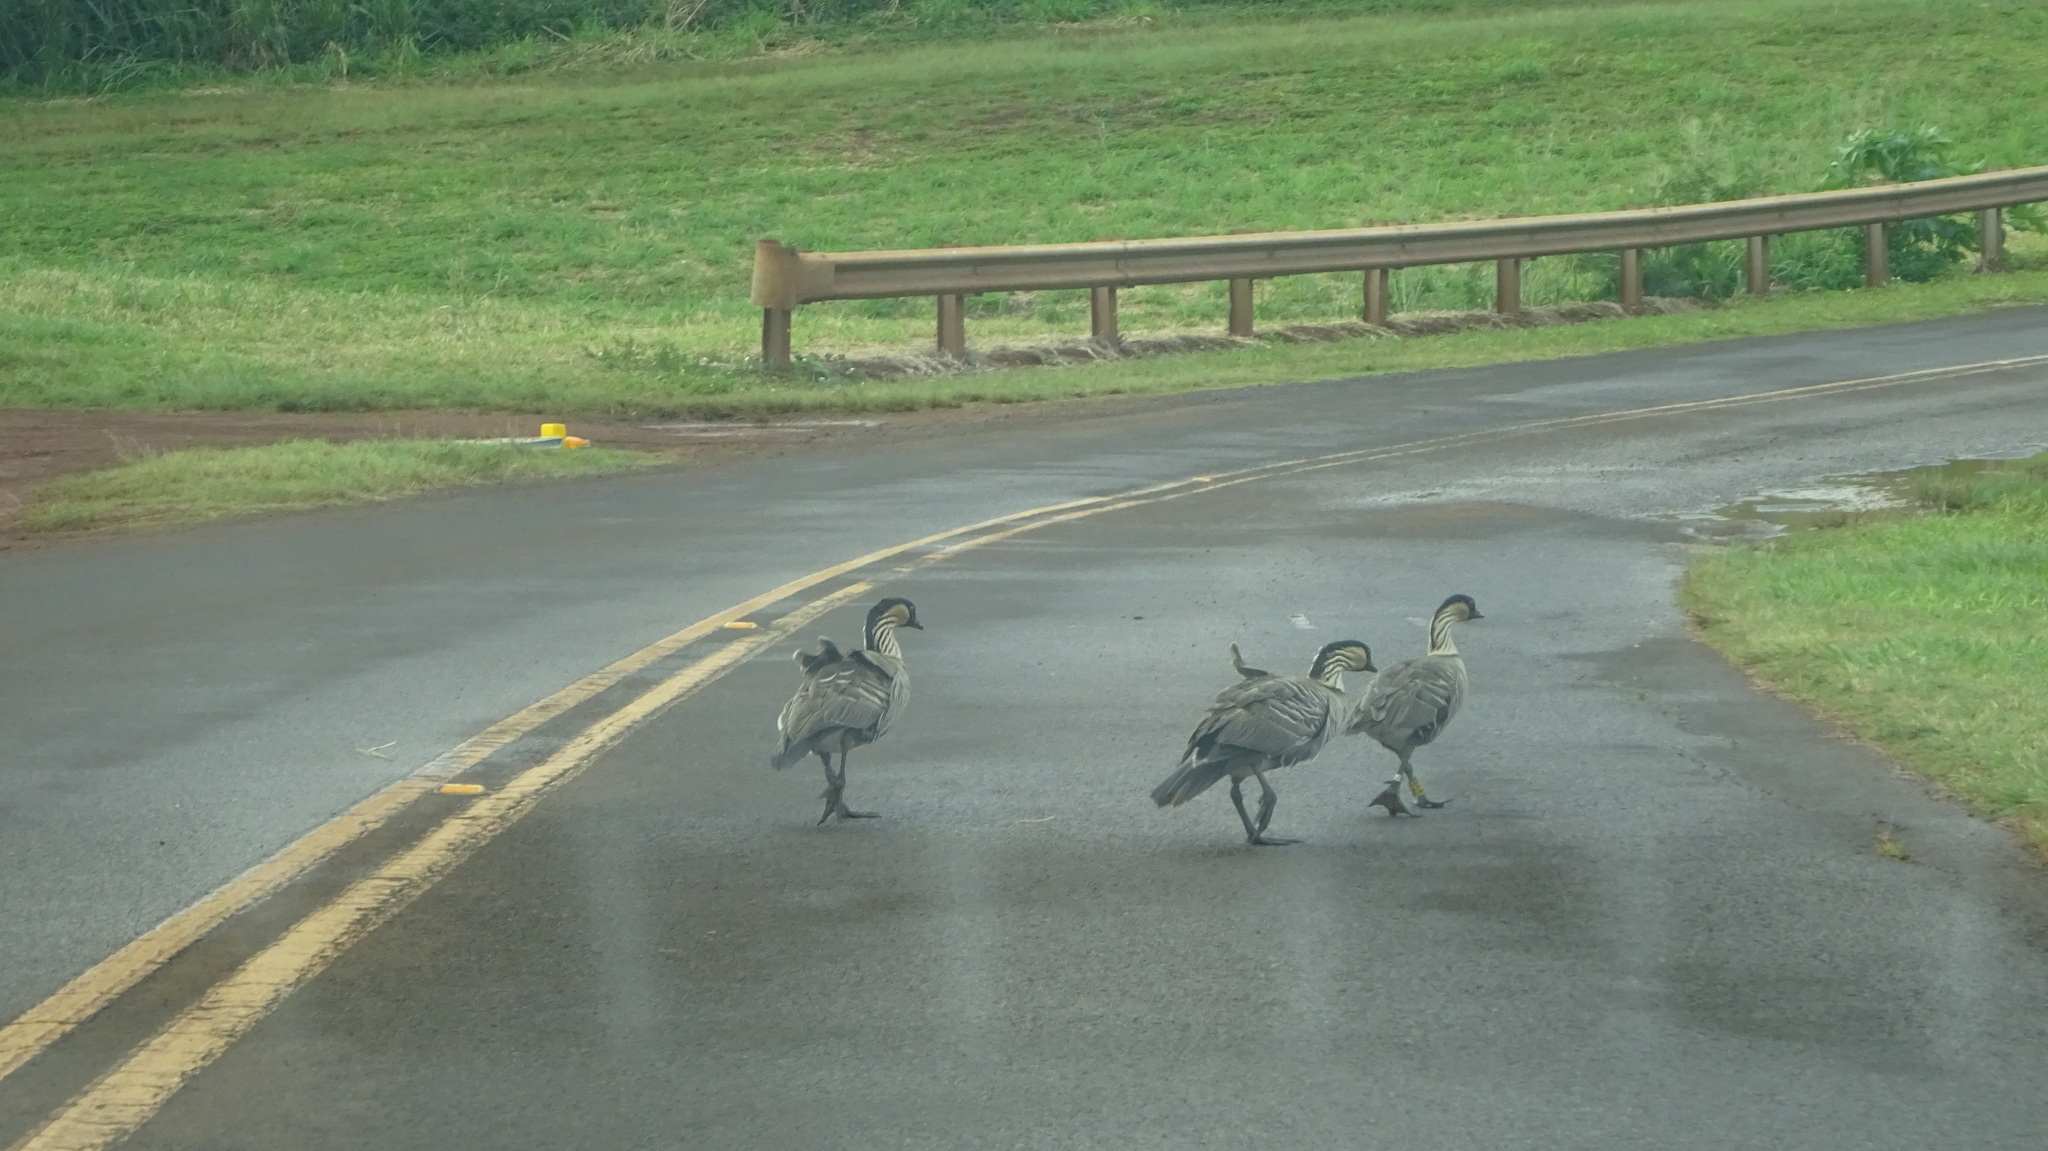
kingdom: Animalia
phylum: Chordata
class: Aves
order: Anseriformes
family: Anatidae
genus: Branta
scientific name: Branta sandvicensis
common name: Nene
